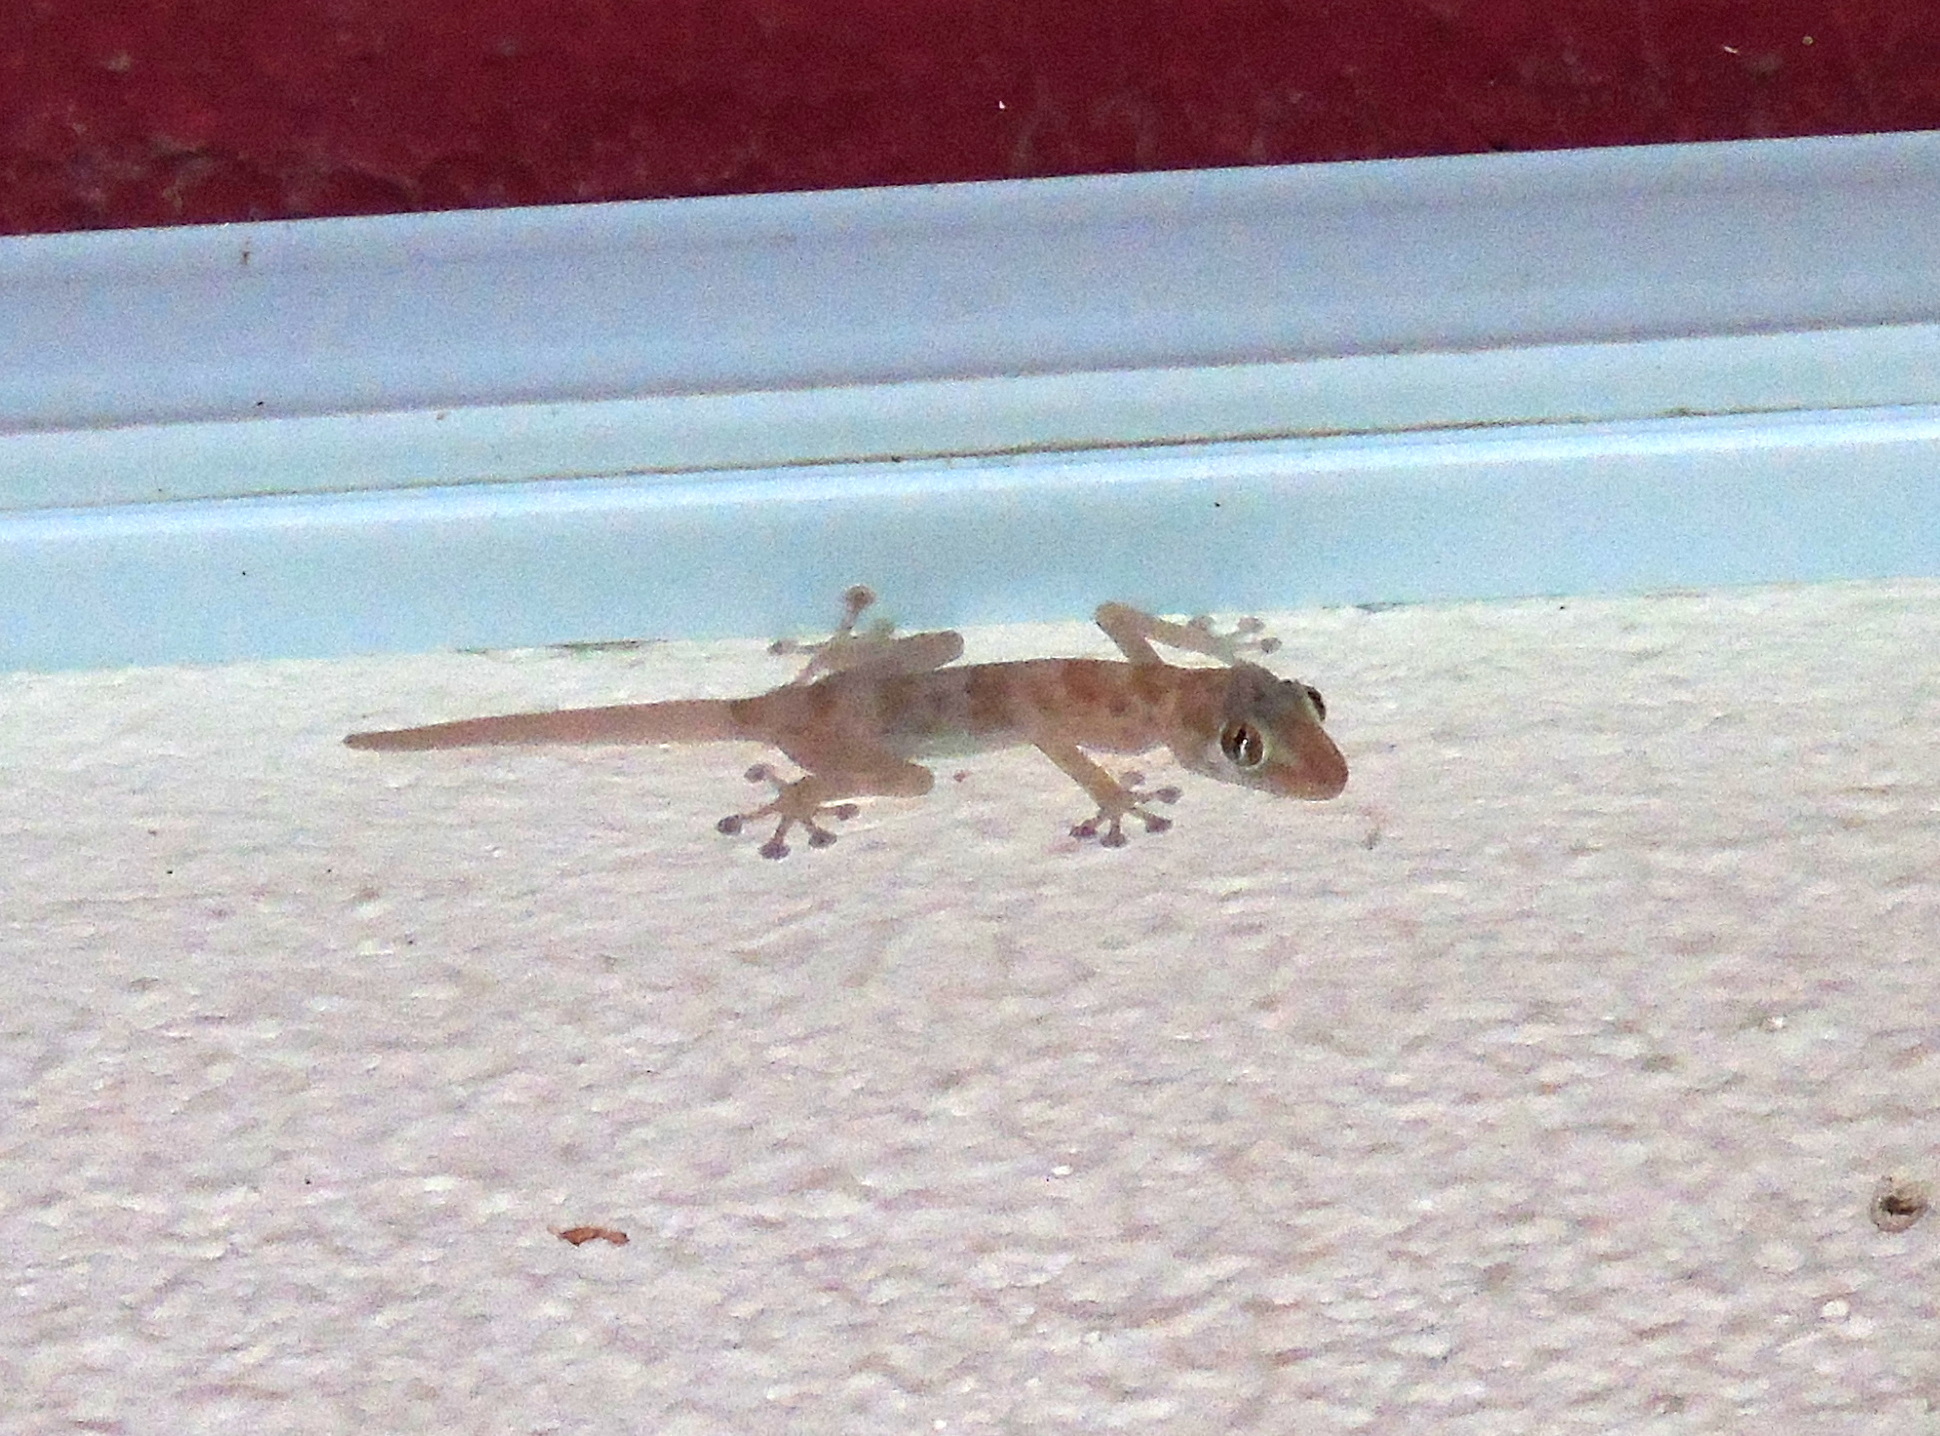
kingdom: Animalia
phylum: Chordata
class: Squamata
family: Phyllodactylidae
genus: Ptyodactylus
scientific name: Ptyodactylus hasselquistii
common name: Hasselquist’s fan-footed gecko
